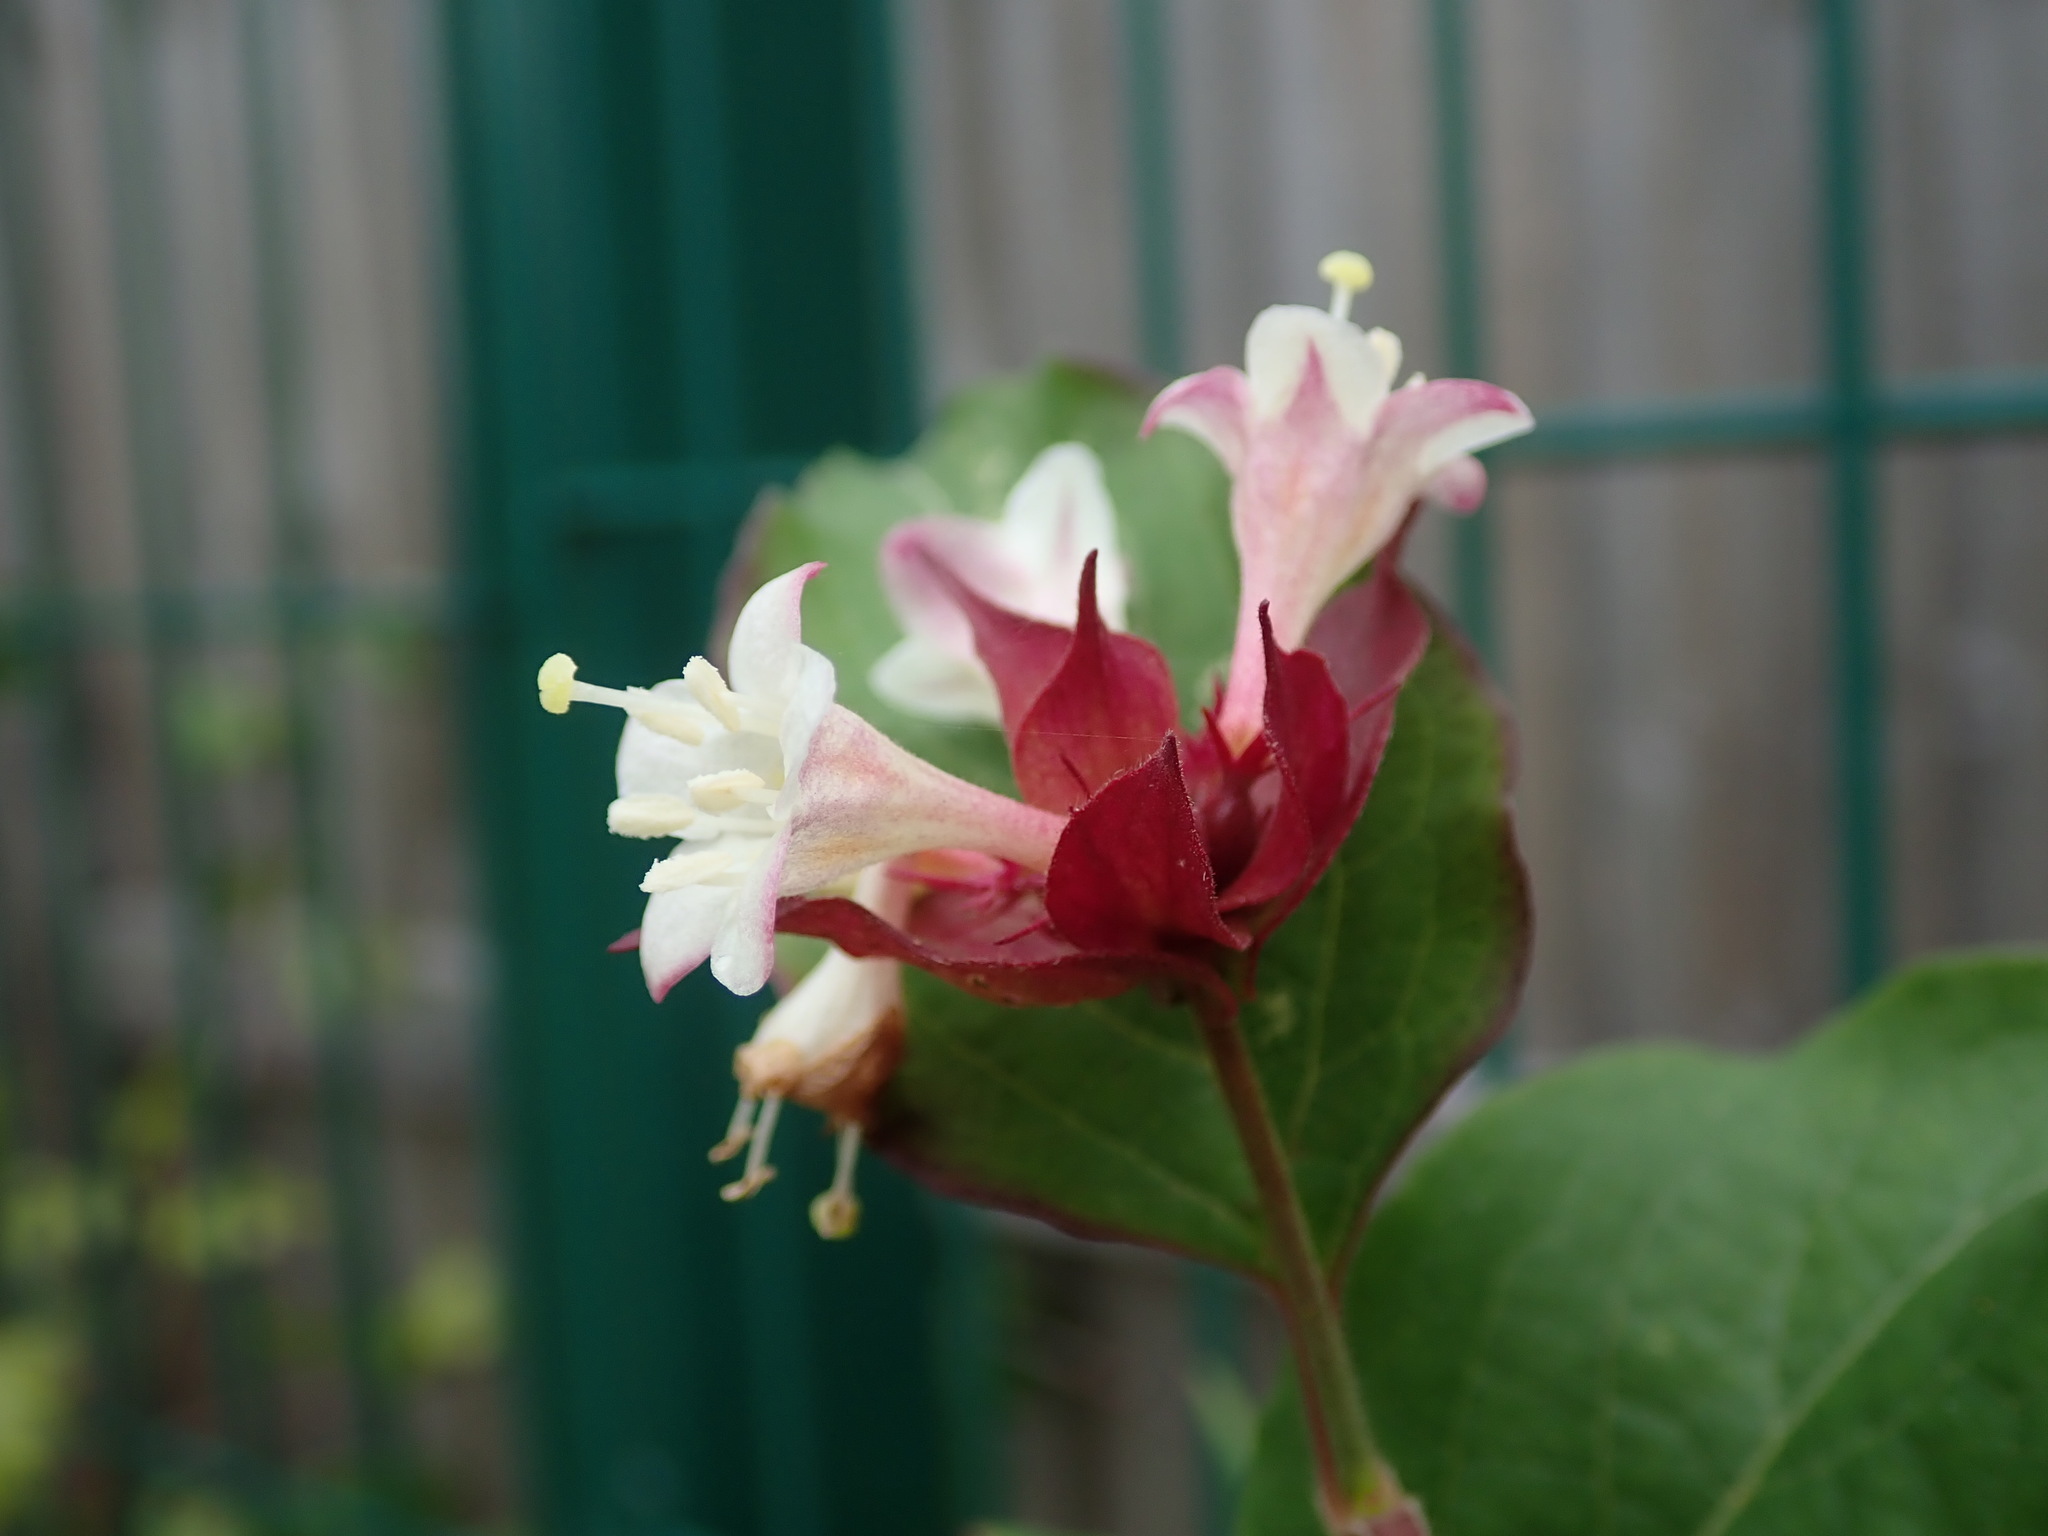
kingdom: Plantae
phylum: Tracheophyta
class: Magnoliopsida
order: Dipsacales
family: Caprifoliaceae
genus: Leycesteria
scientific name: Leycesteria formosa
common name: Himalayan honeysuckle
